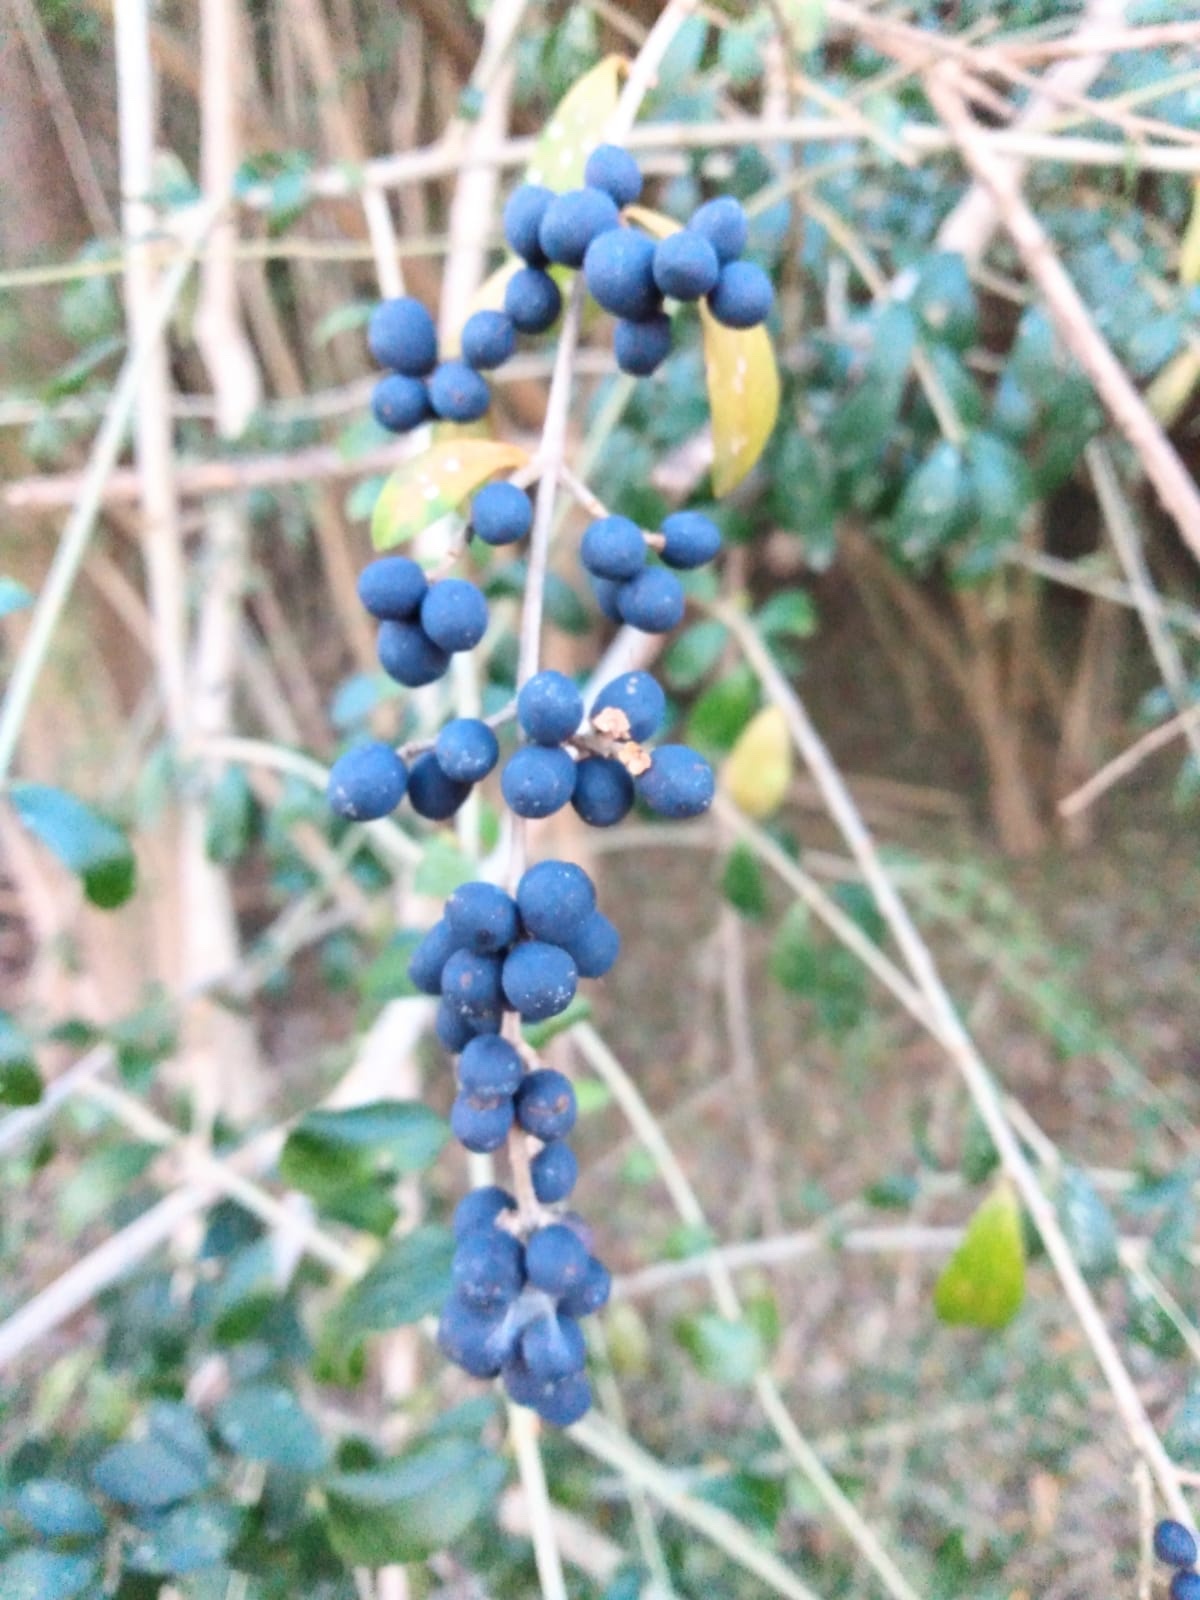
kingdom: Plantae
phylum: Tracheophyta
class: Magnoliopsida
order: Lamiales
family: Oleaceae
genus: Ligustrum
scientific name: Ligustrum quihoui
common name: Waxyleaf privet
